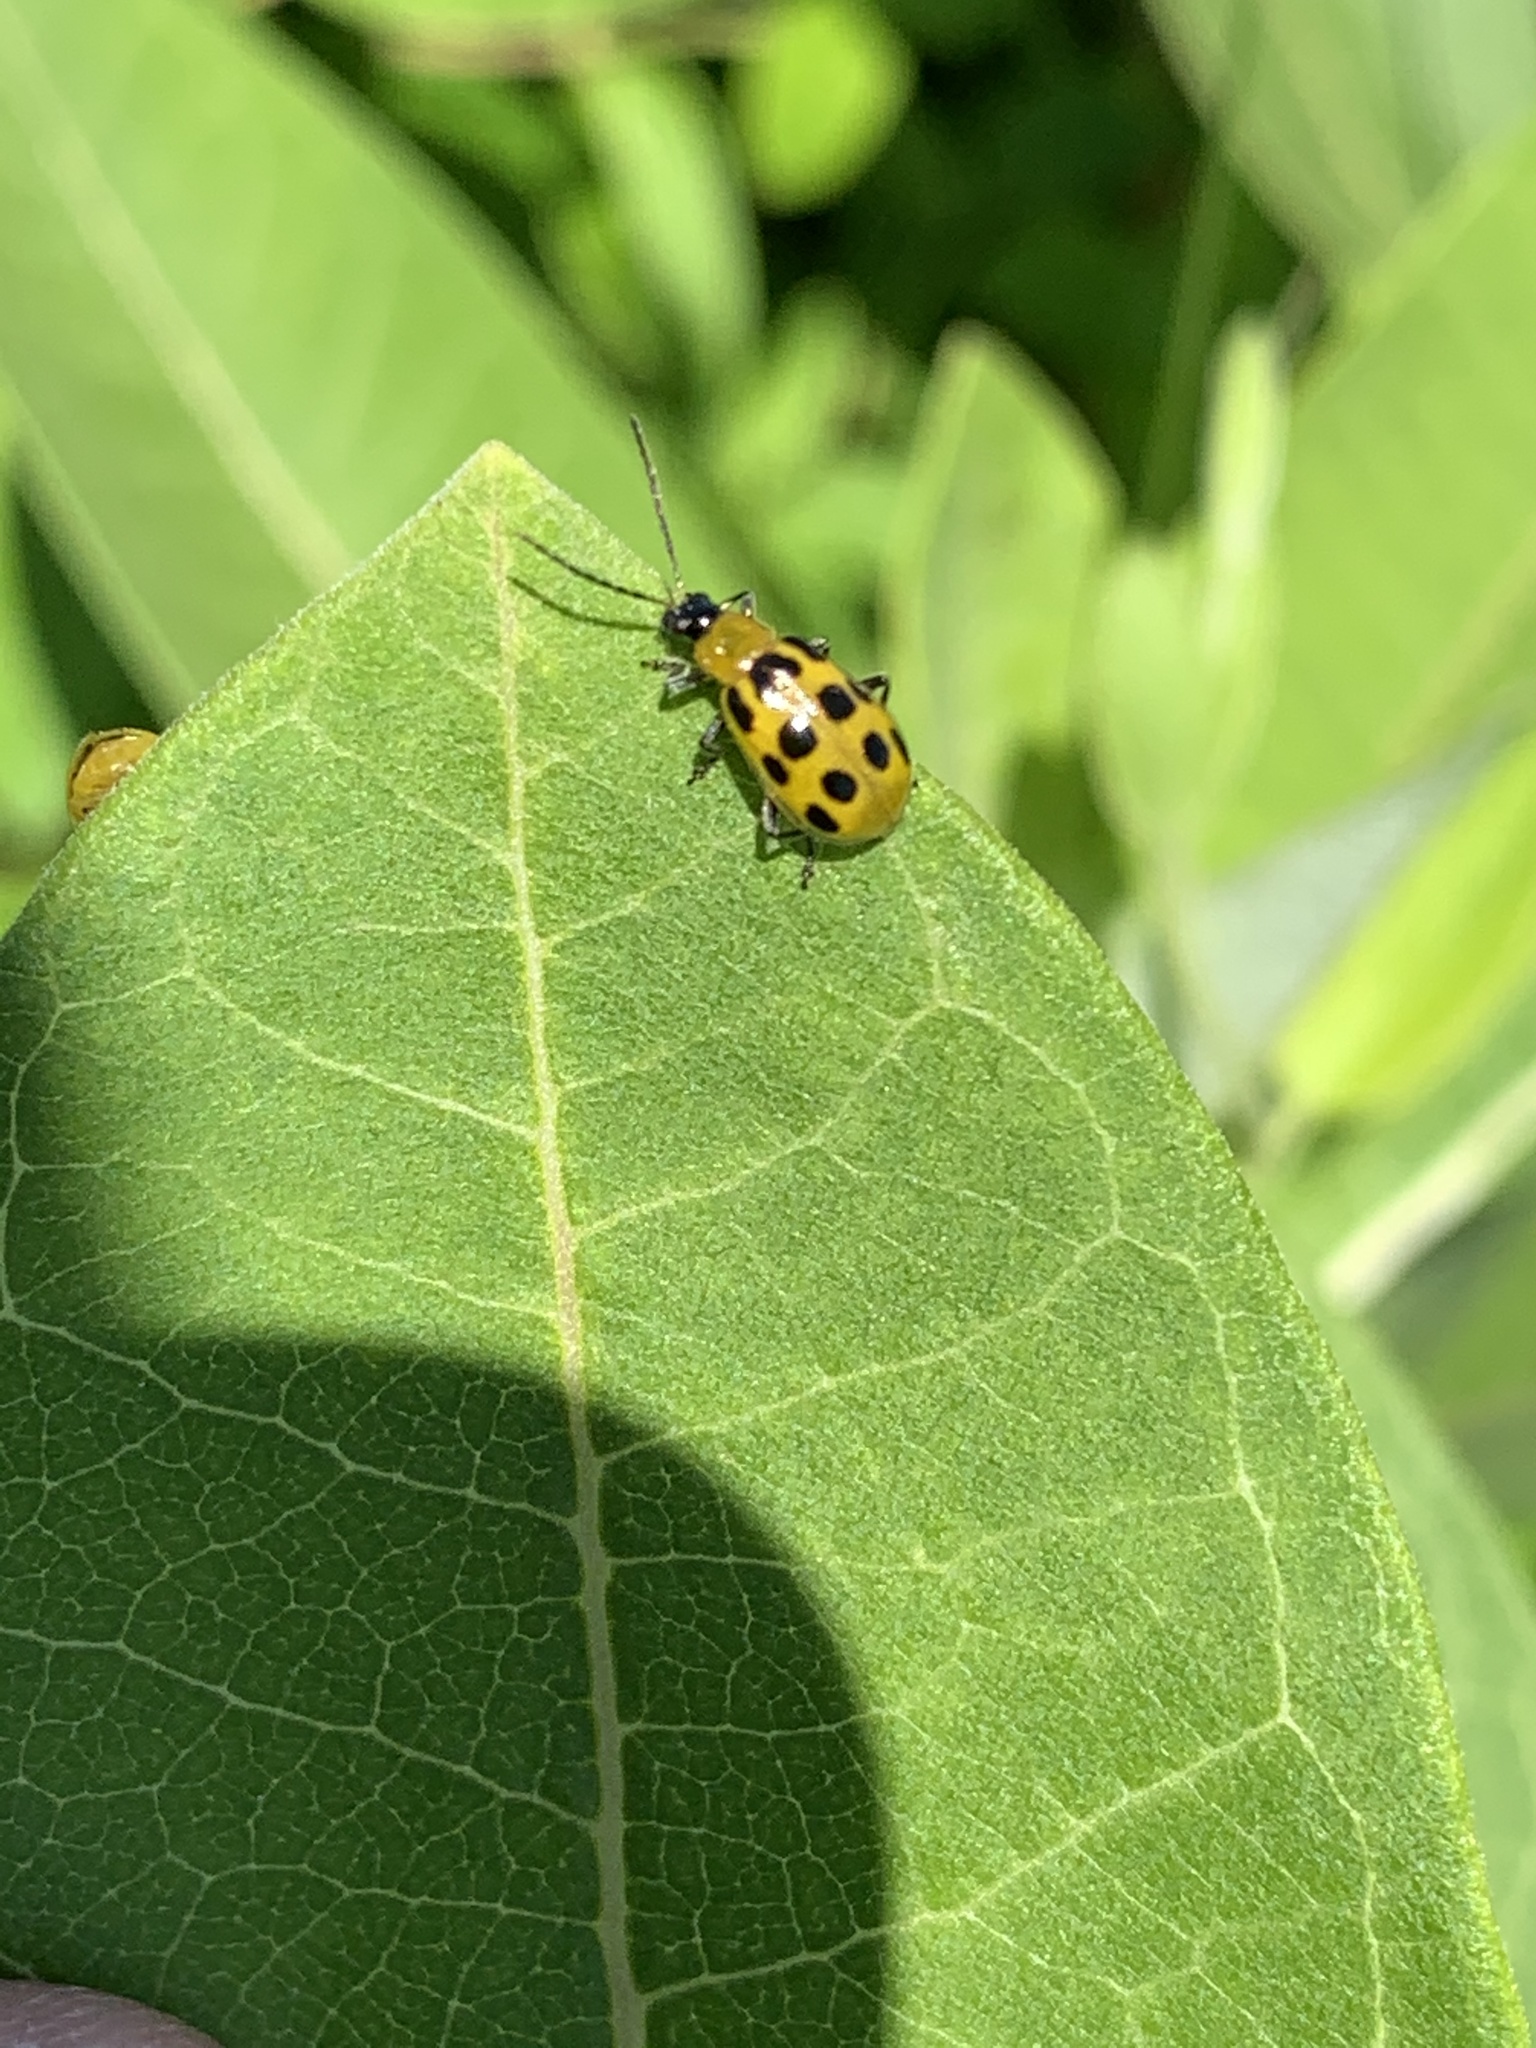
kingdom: Animalia
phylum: Arthropoda
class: Insecta
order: Coleoptera
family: Chrysomelidae
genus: Diabrotica
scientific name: Diabrotica undecimpunctata
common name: Spotted cucumber beetle
